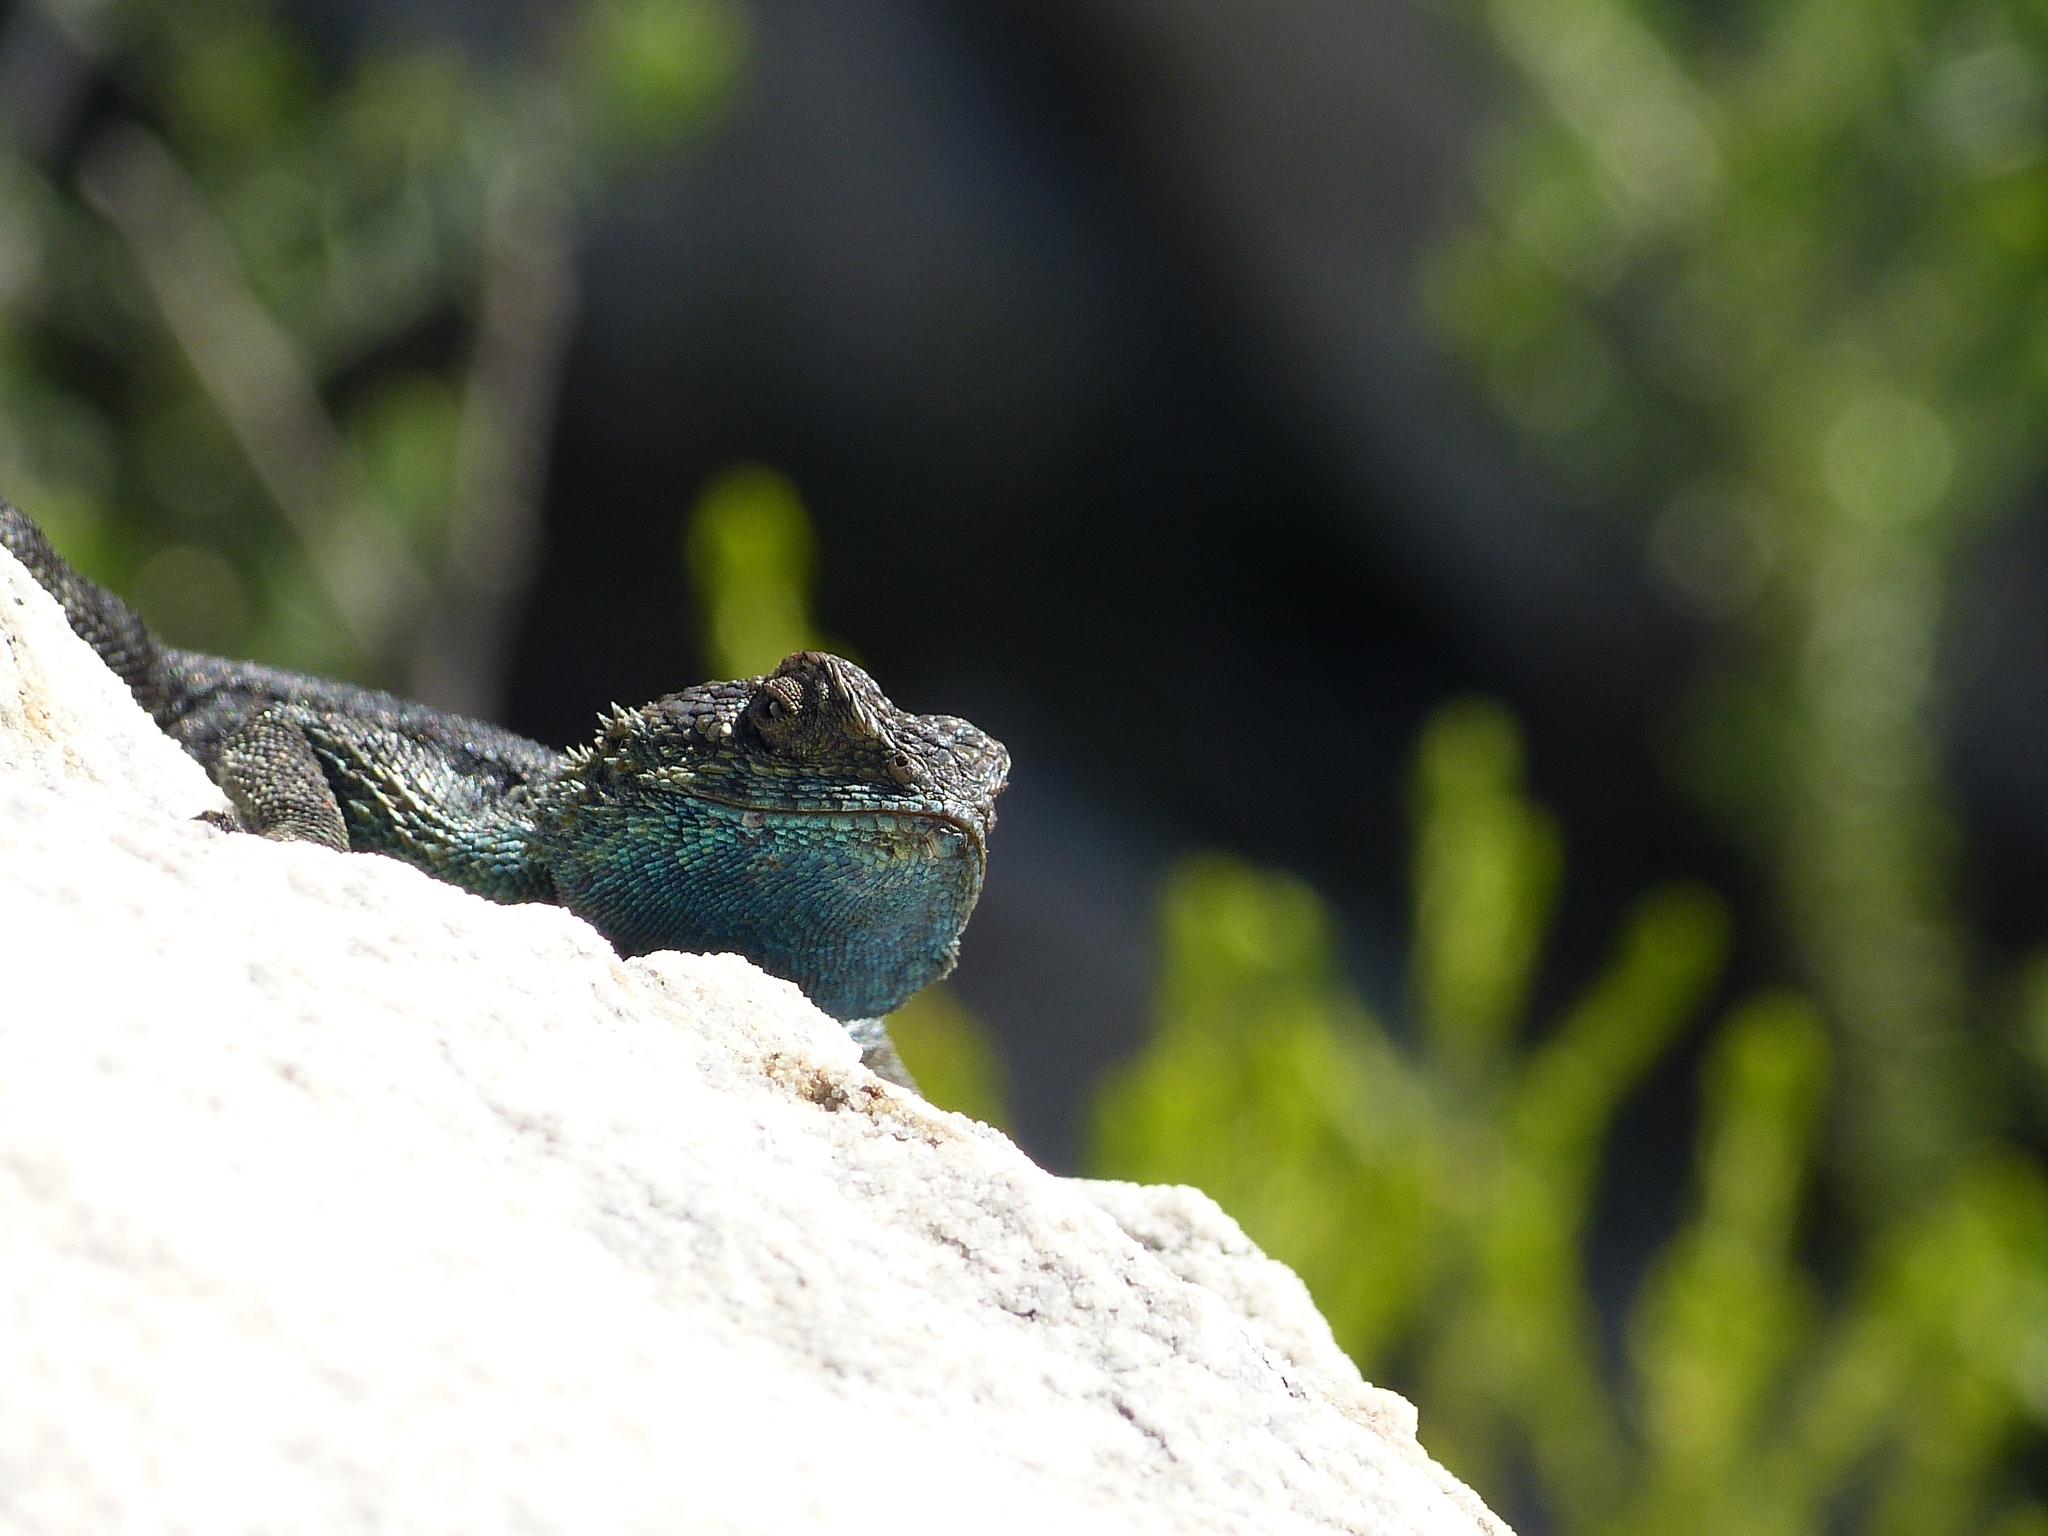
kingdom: Animalia
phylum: Chordata
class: Squamata
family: Agamidae
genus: Agama
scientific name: Agama atra
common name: Southern african rock agama
